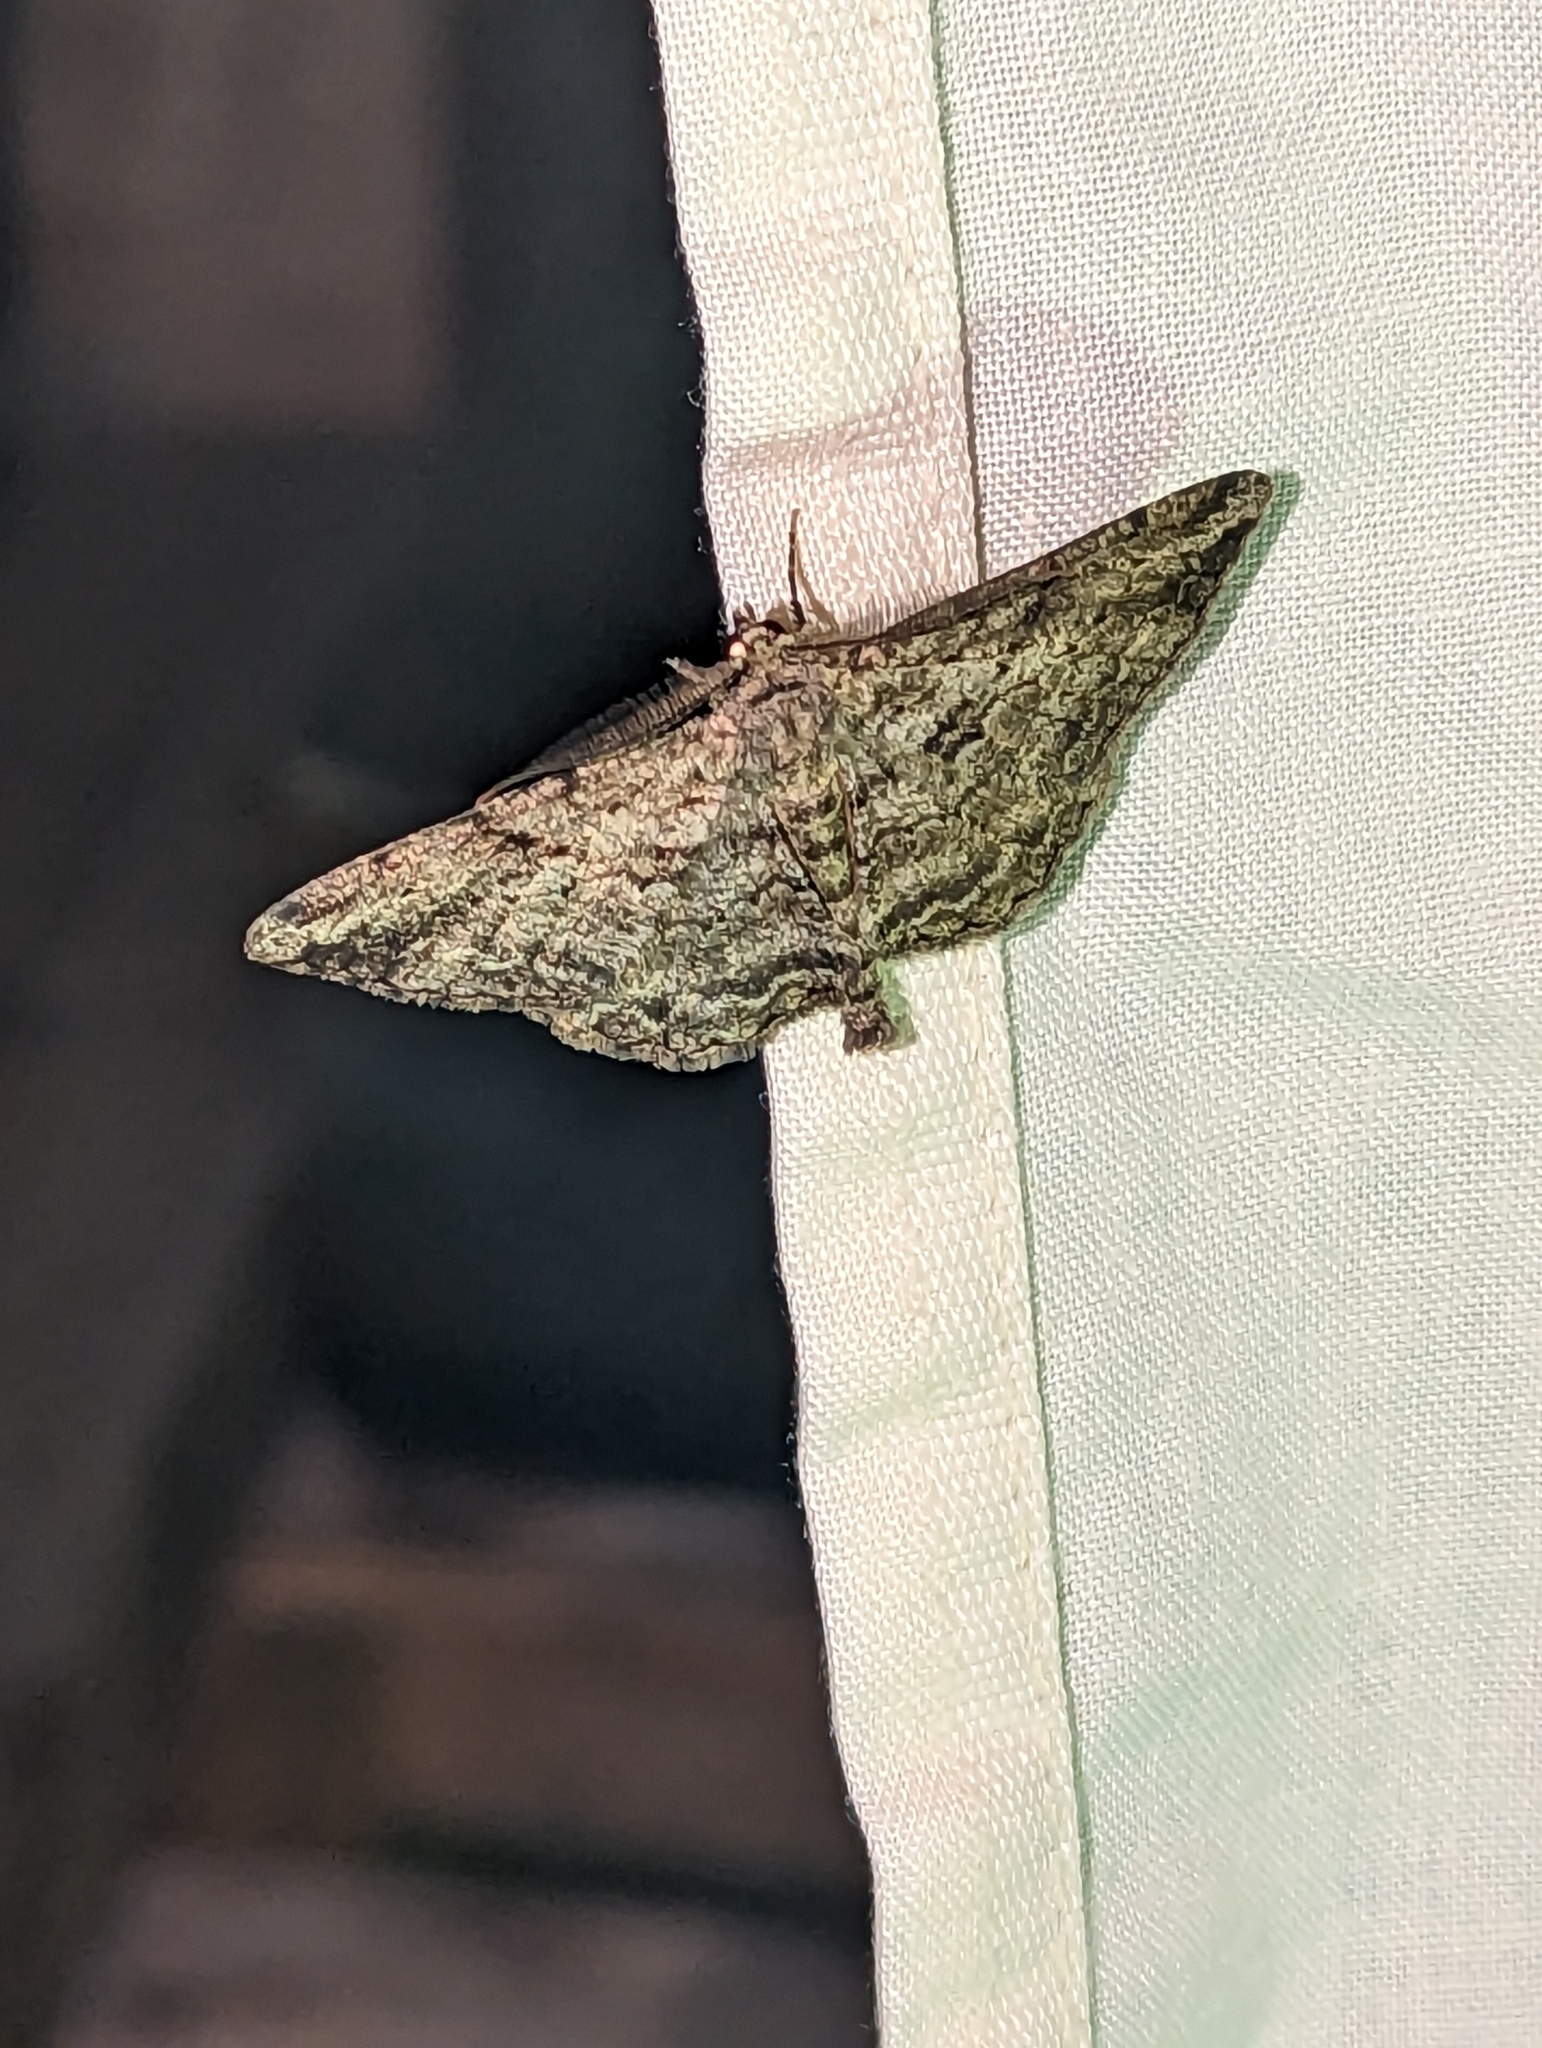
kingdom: Animalia
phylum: Arthropoda
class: Insecta
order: Lepidoptera
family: Geometridae
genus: Peribatodes
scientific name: Peribatodes rhomboidaria
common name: Willow beauty
